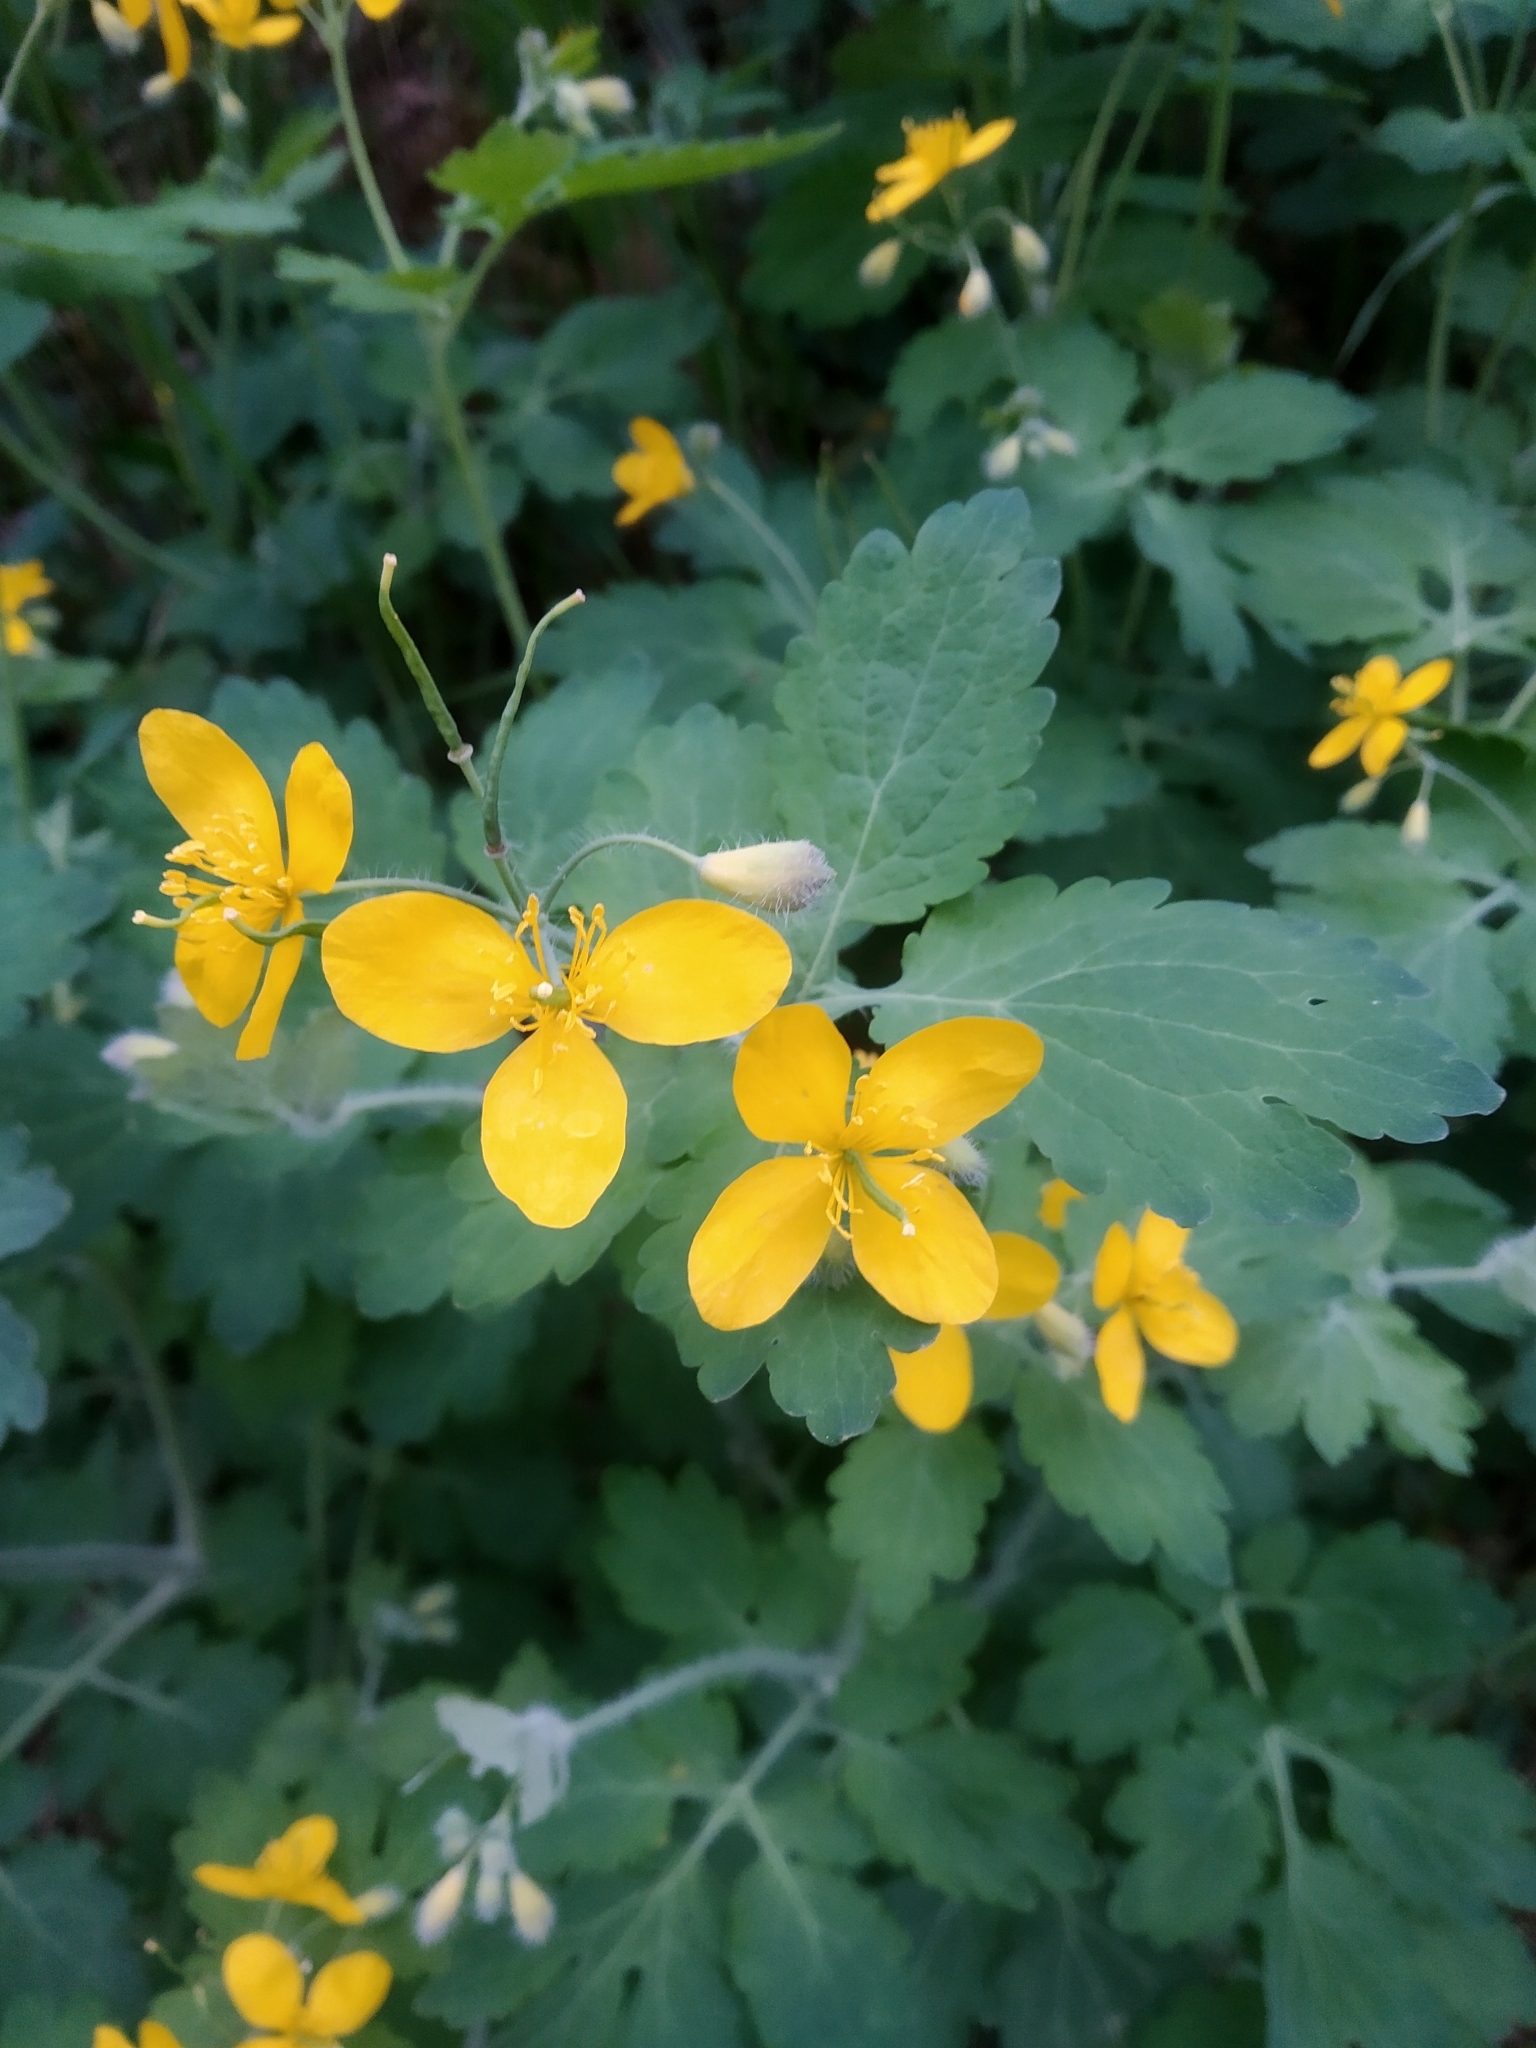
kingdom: Plantae
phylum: Tracheophyta
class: Magnoliopsida
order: Ranunculales
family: Papaveraceae
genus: Chelidonium
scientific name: Chelidonium majus
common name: Greater celandine
